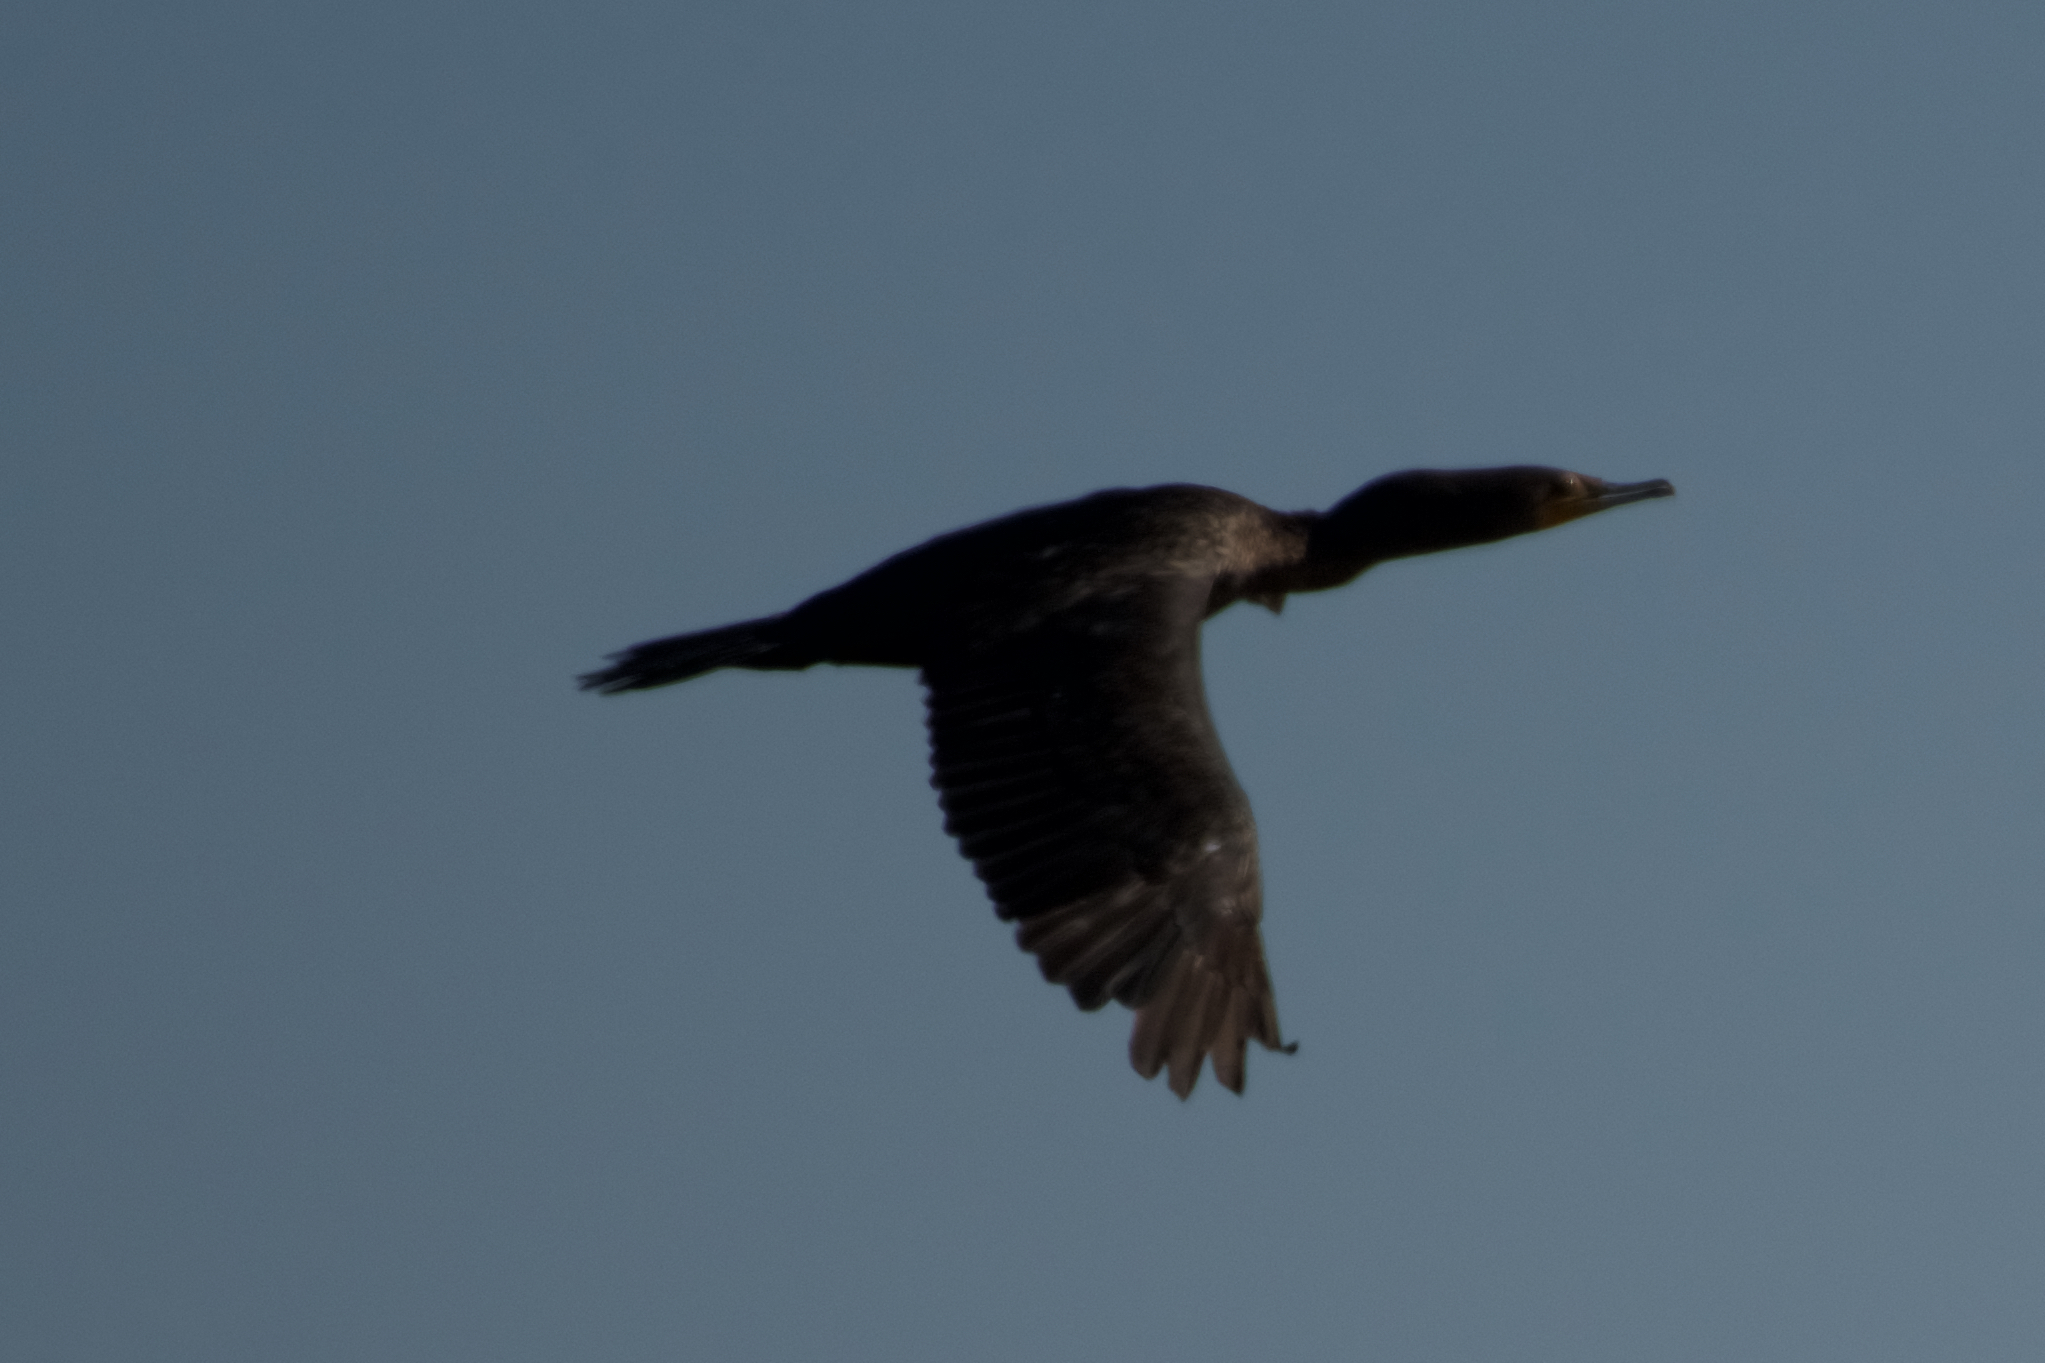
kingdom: Animalia
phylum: Chordata
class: Aves
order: Suliformes
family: Phalacrocoracidae
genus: Phalacrocorax
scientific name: Phalacrocorax auritus
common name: Double-crested cormorant
